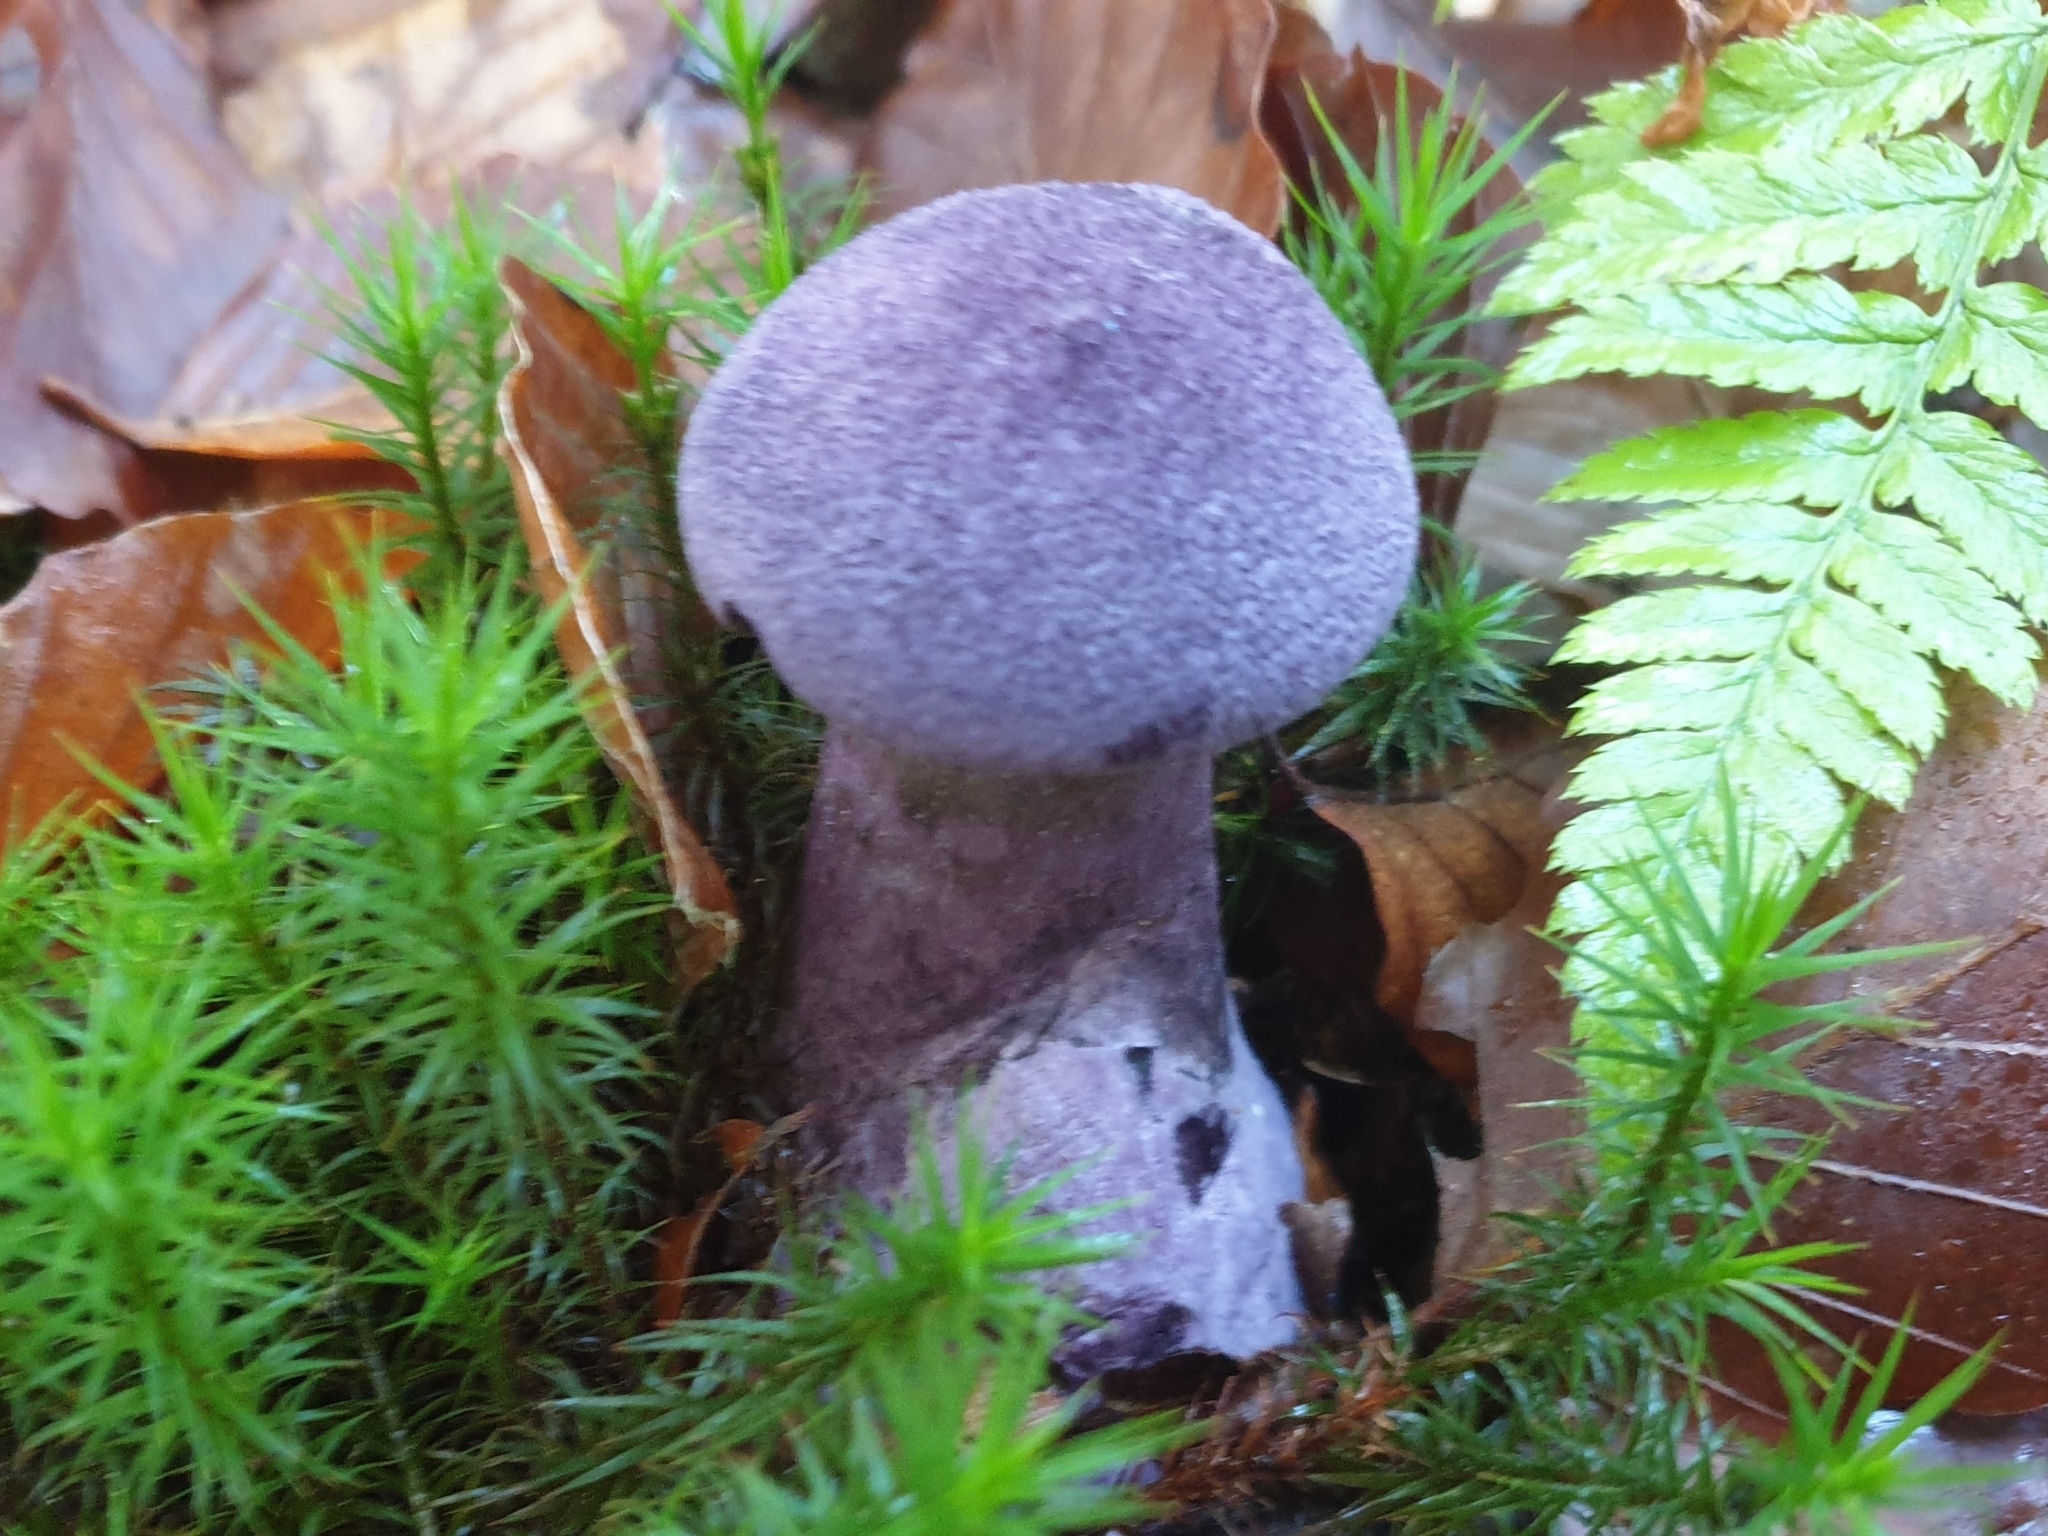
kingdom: Fungi
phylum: Basidiomycota
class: Agaricomycetes
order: Agaricales
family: Cortinariaceae
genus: Cortinarius
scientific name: Cortinarius violaceus
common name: Violet webcap
